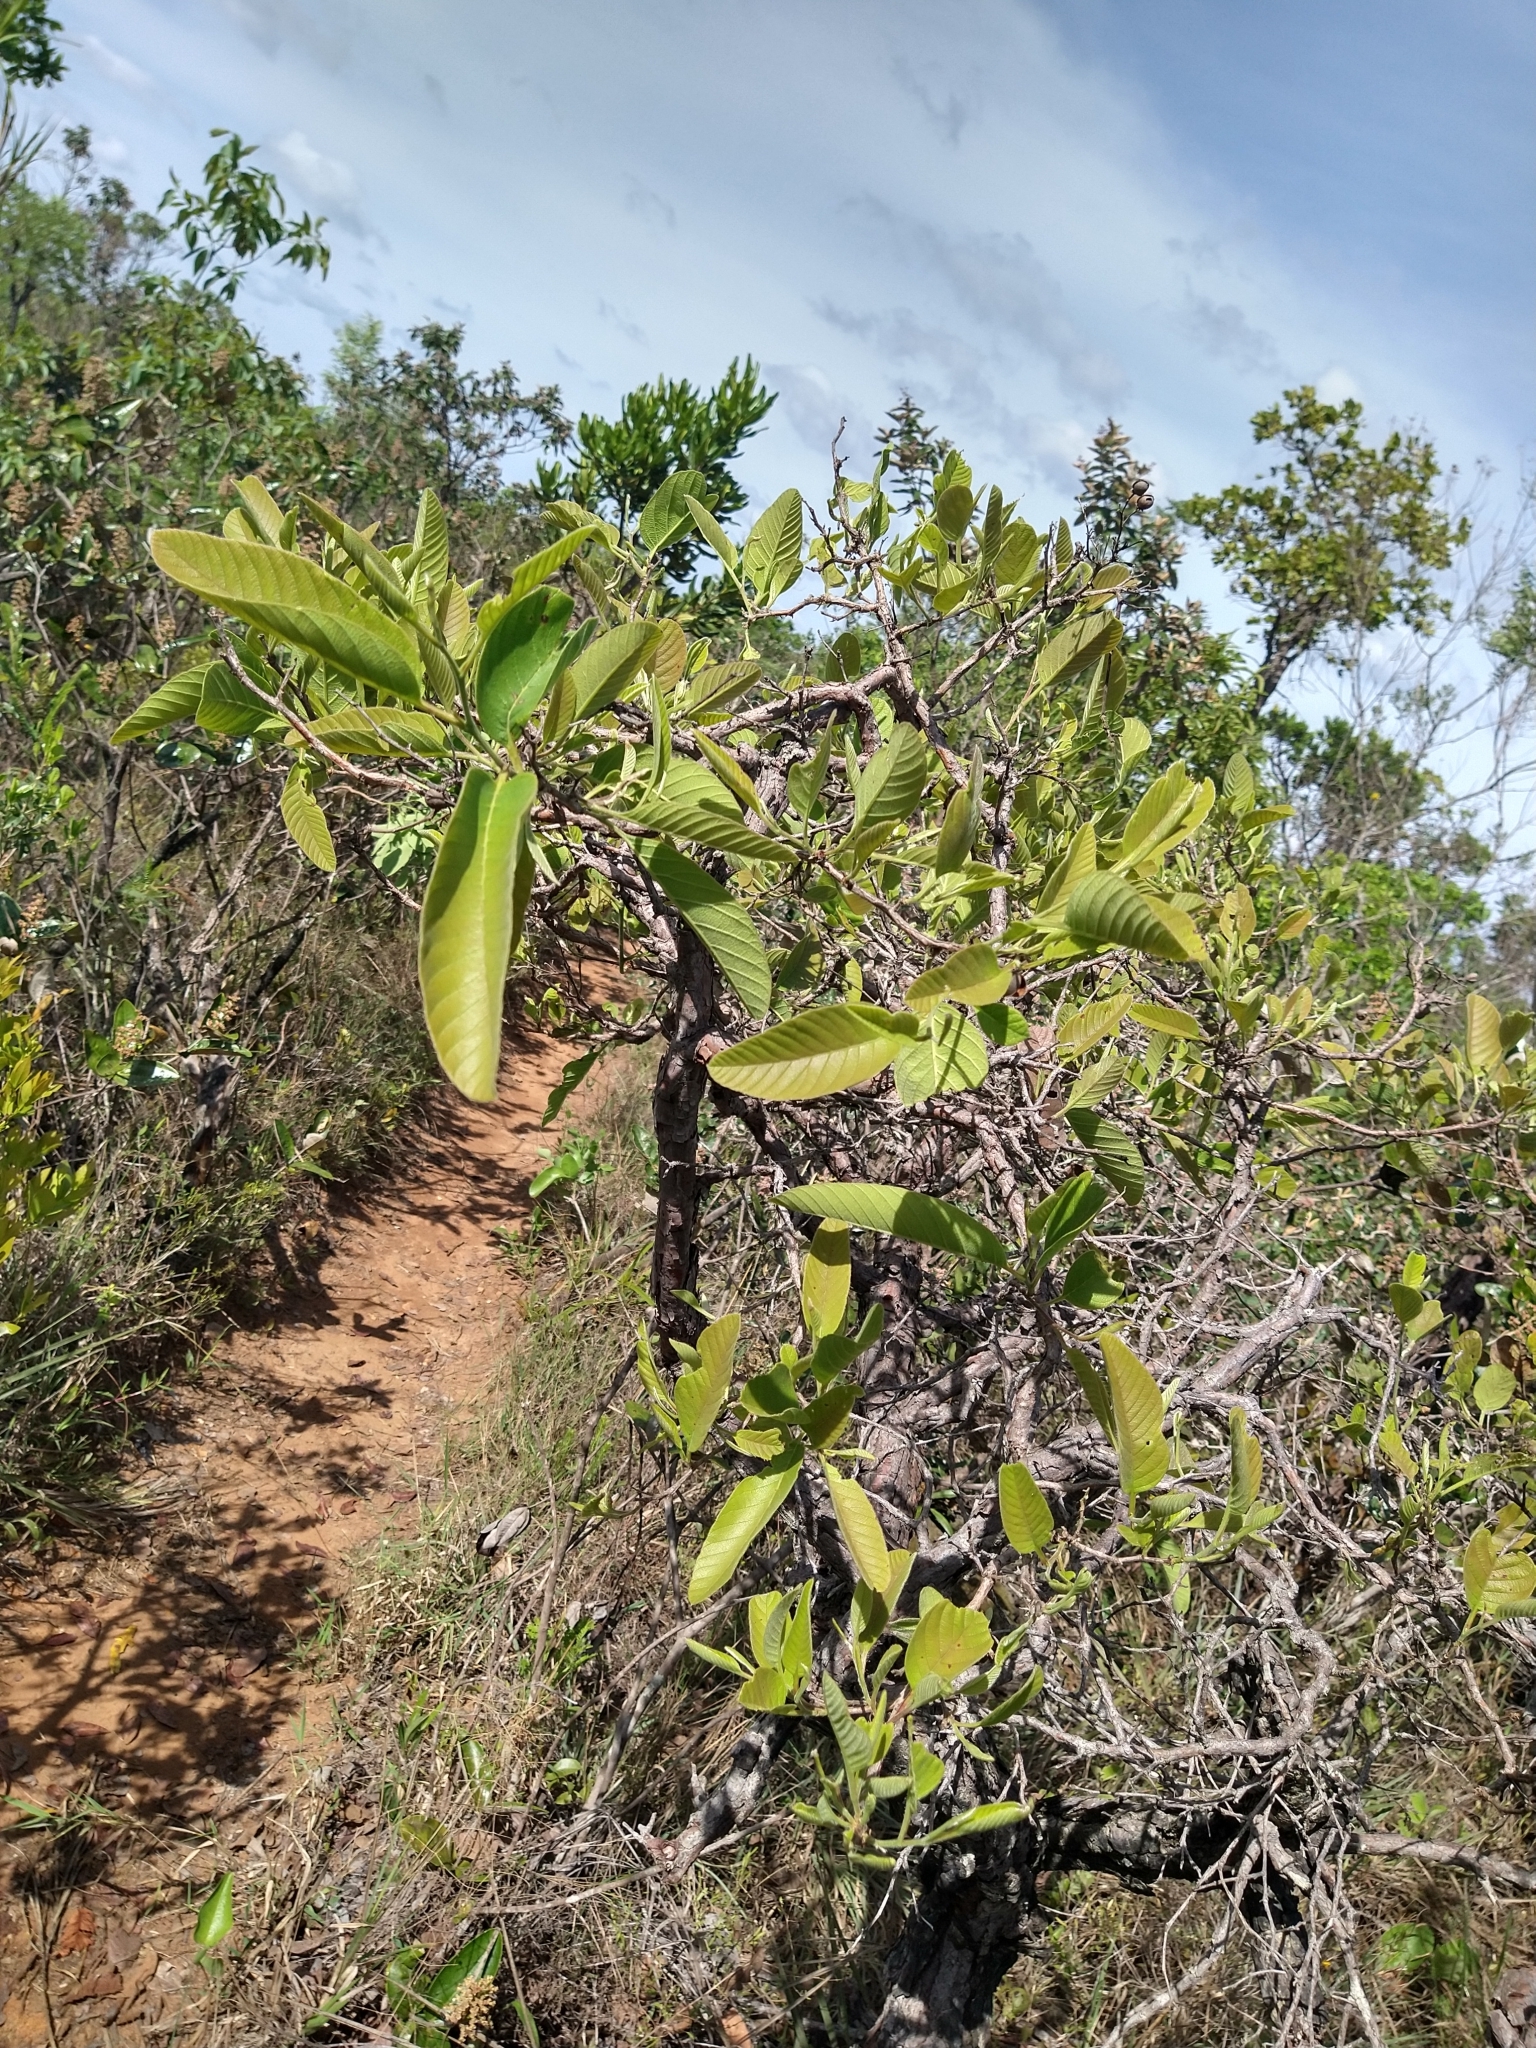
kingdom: Plantae
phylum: Tracheophyta
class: Magnoliopsida
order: Dilleniales
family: Dilleniaceae
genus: Davilla
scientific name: Davilla elliptica
